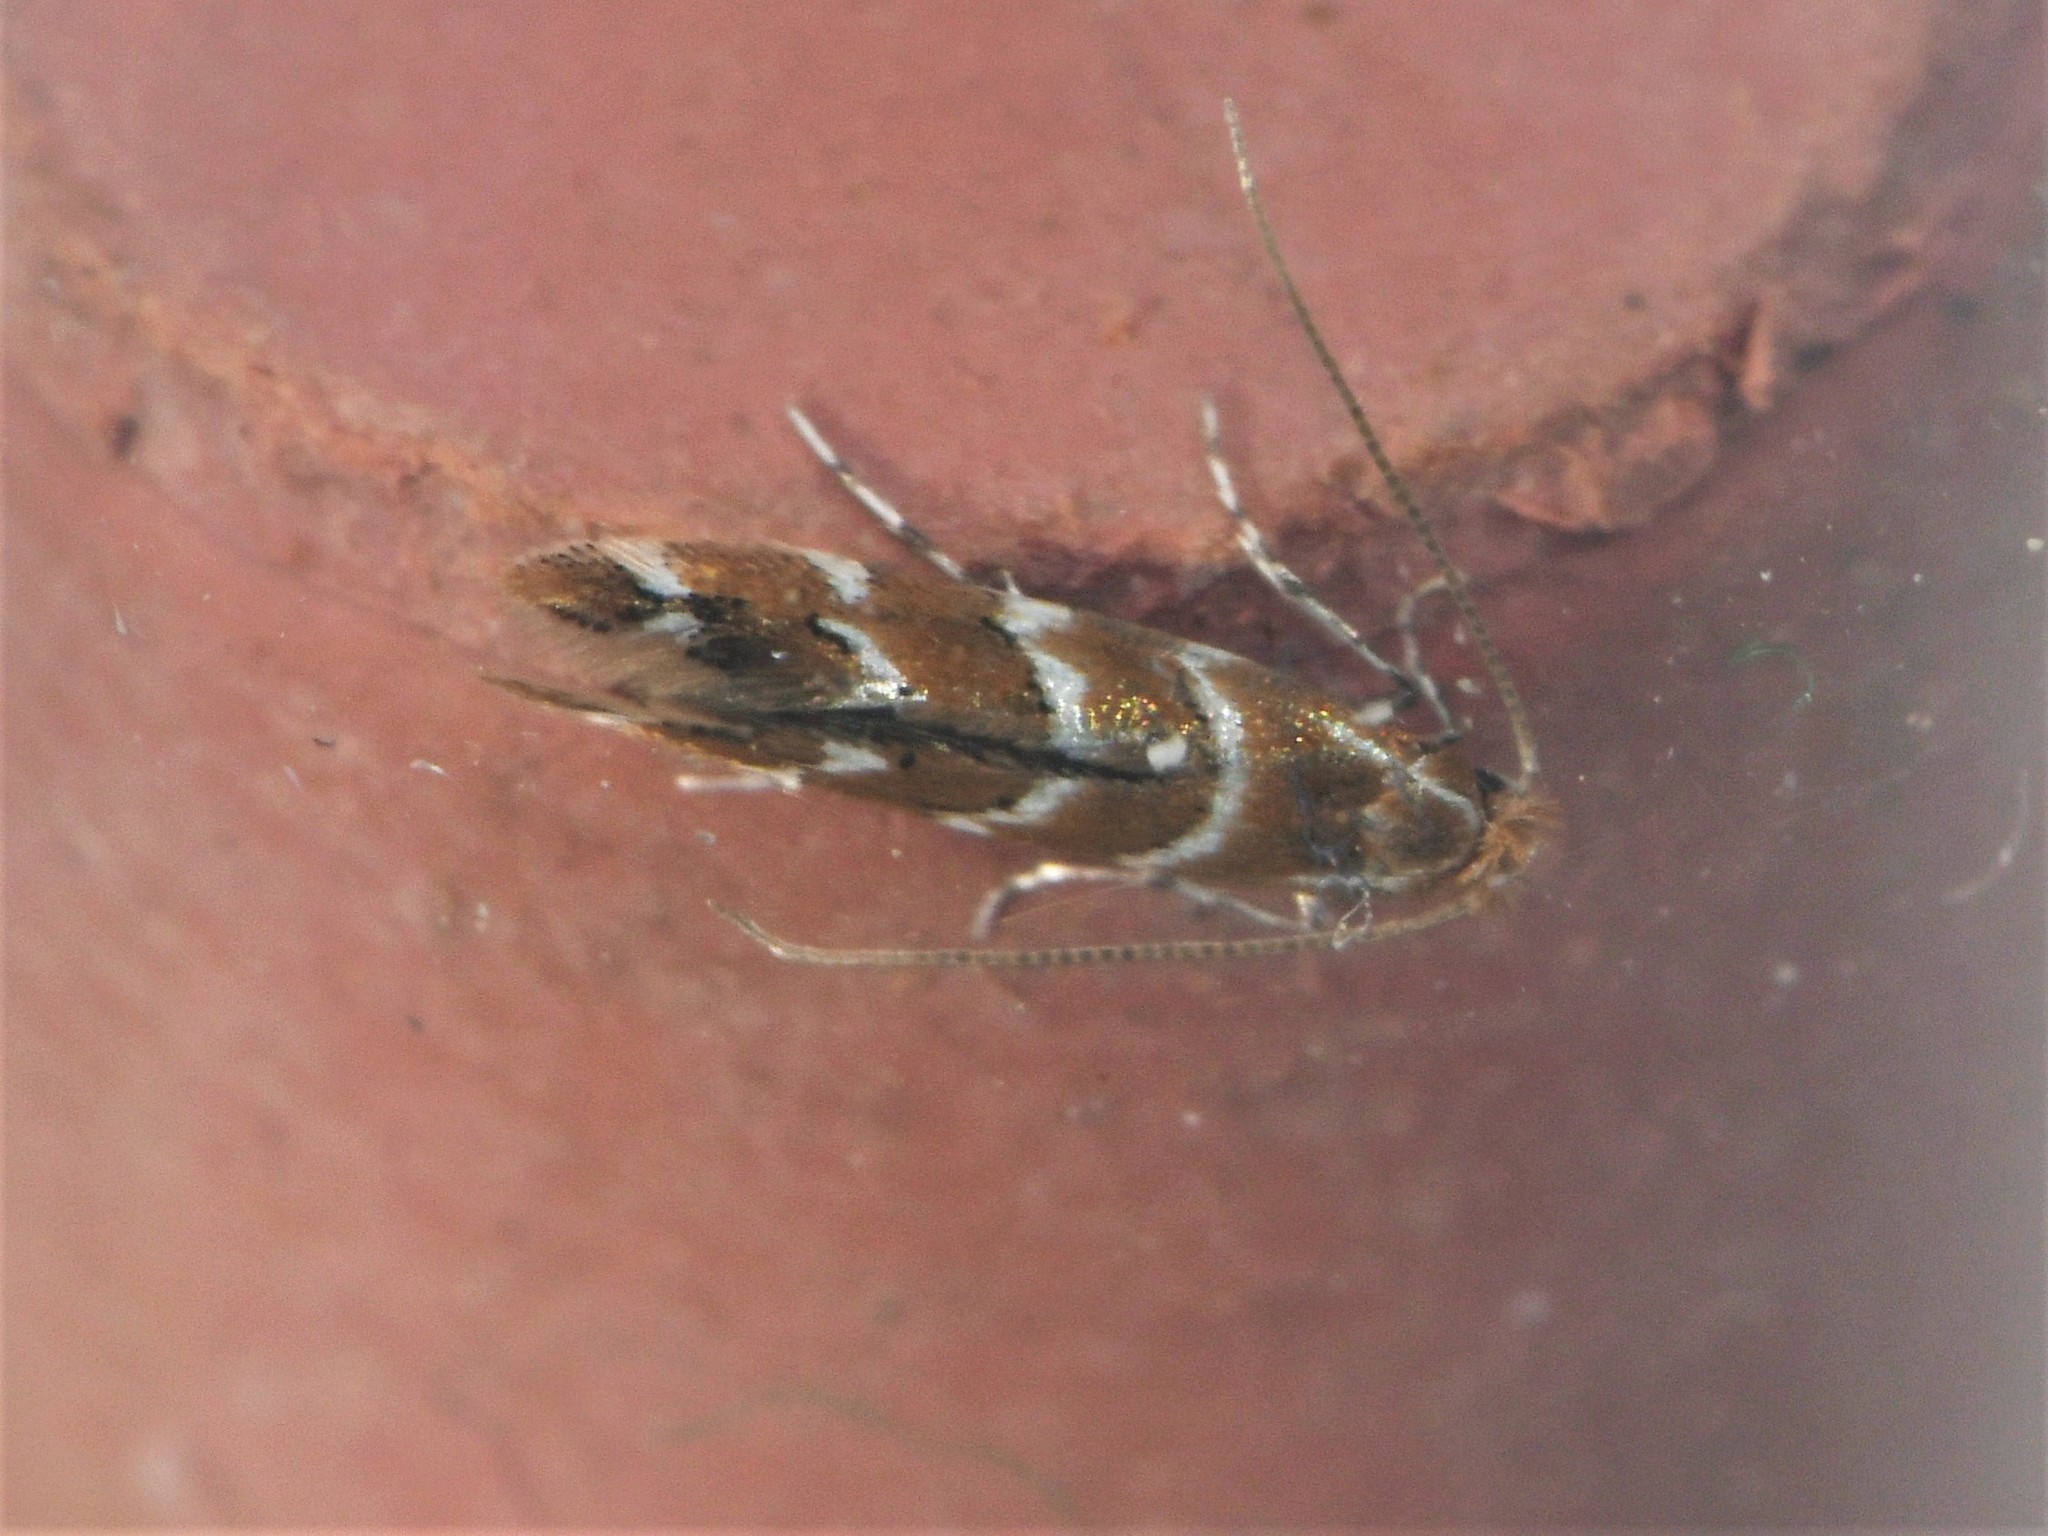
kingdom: Animalia
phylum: Arthropoda
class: Insecta
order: Lepidoptera
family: Gracillariidae
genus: Cameraria
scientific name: Cameraria ohridella
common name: Horse-chestnut leaf-miner
